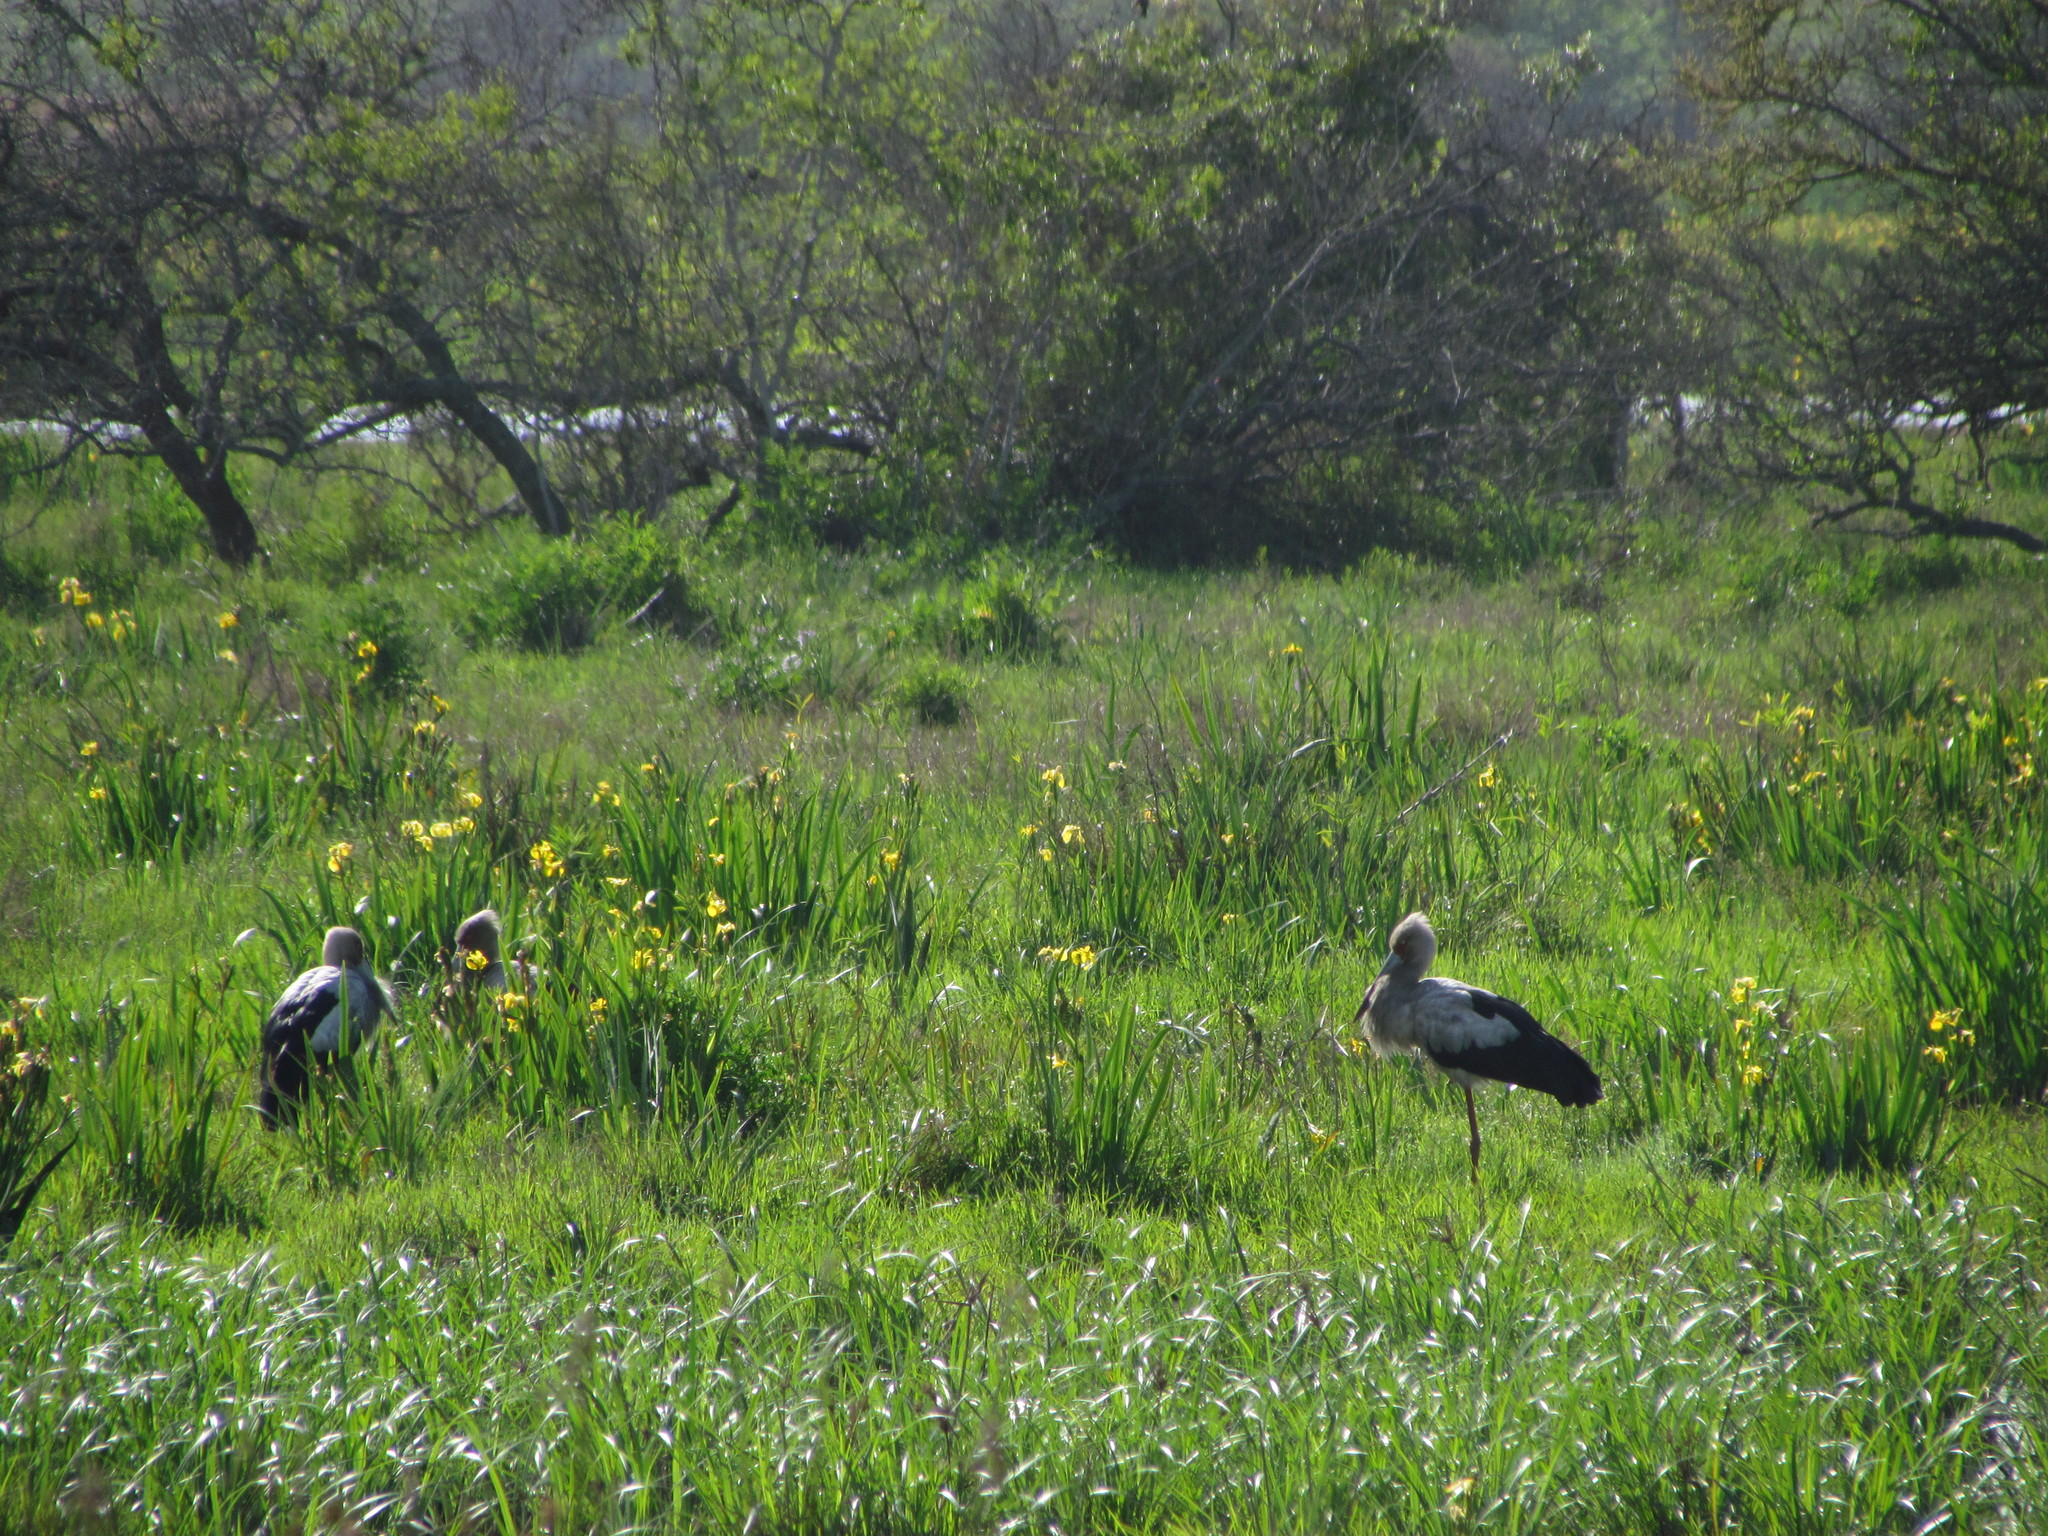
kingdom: Animalia
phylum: Chordata
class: Aves
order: Ciconiiformes
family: Ciconiidae
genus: Ciconia
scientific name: Ciconia maguari
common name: Maguari stork
